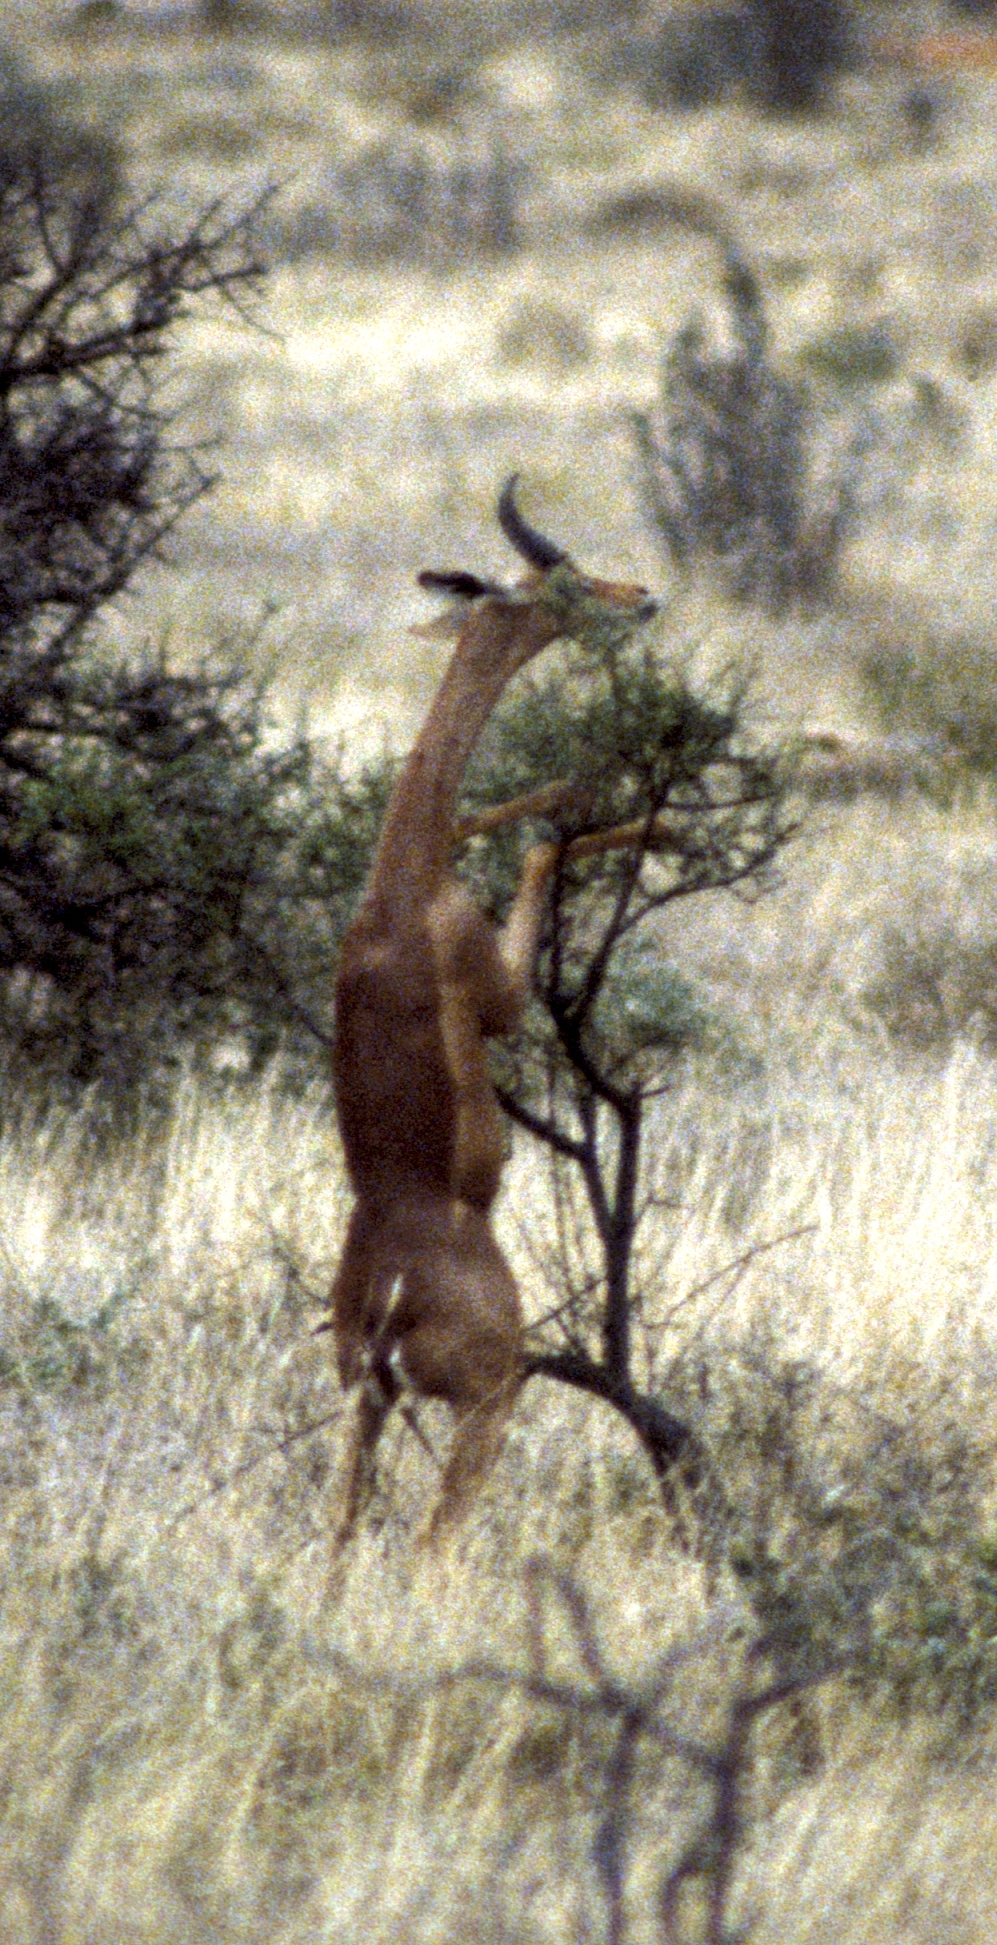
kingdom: Animalia
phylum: Chordata
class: Mammalia
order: Artiodactyla
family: Bovidae
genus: Litocranius
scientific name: Litocranius walleri
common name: Gerenuk
